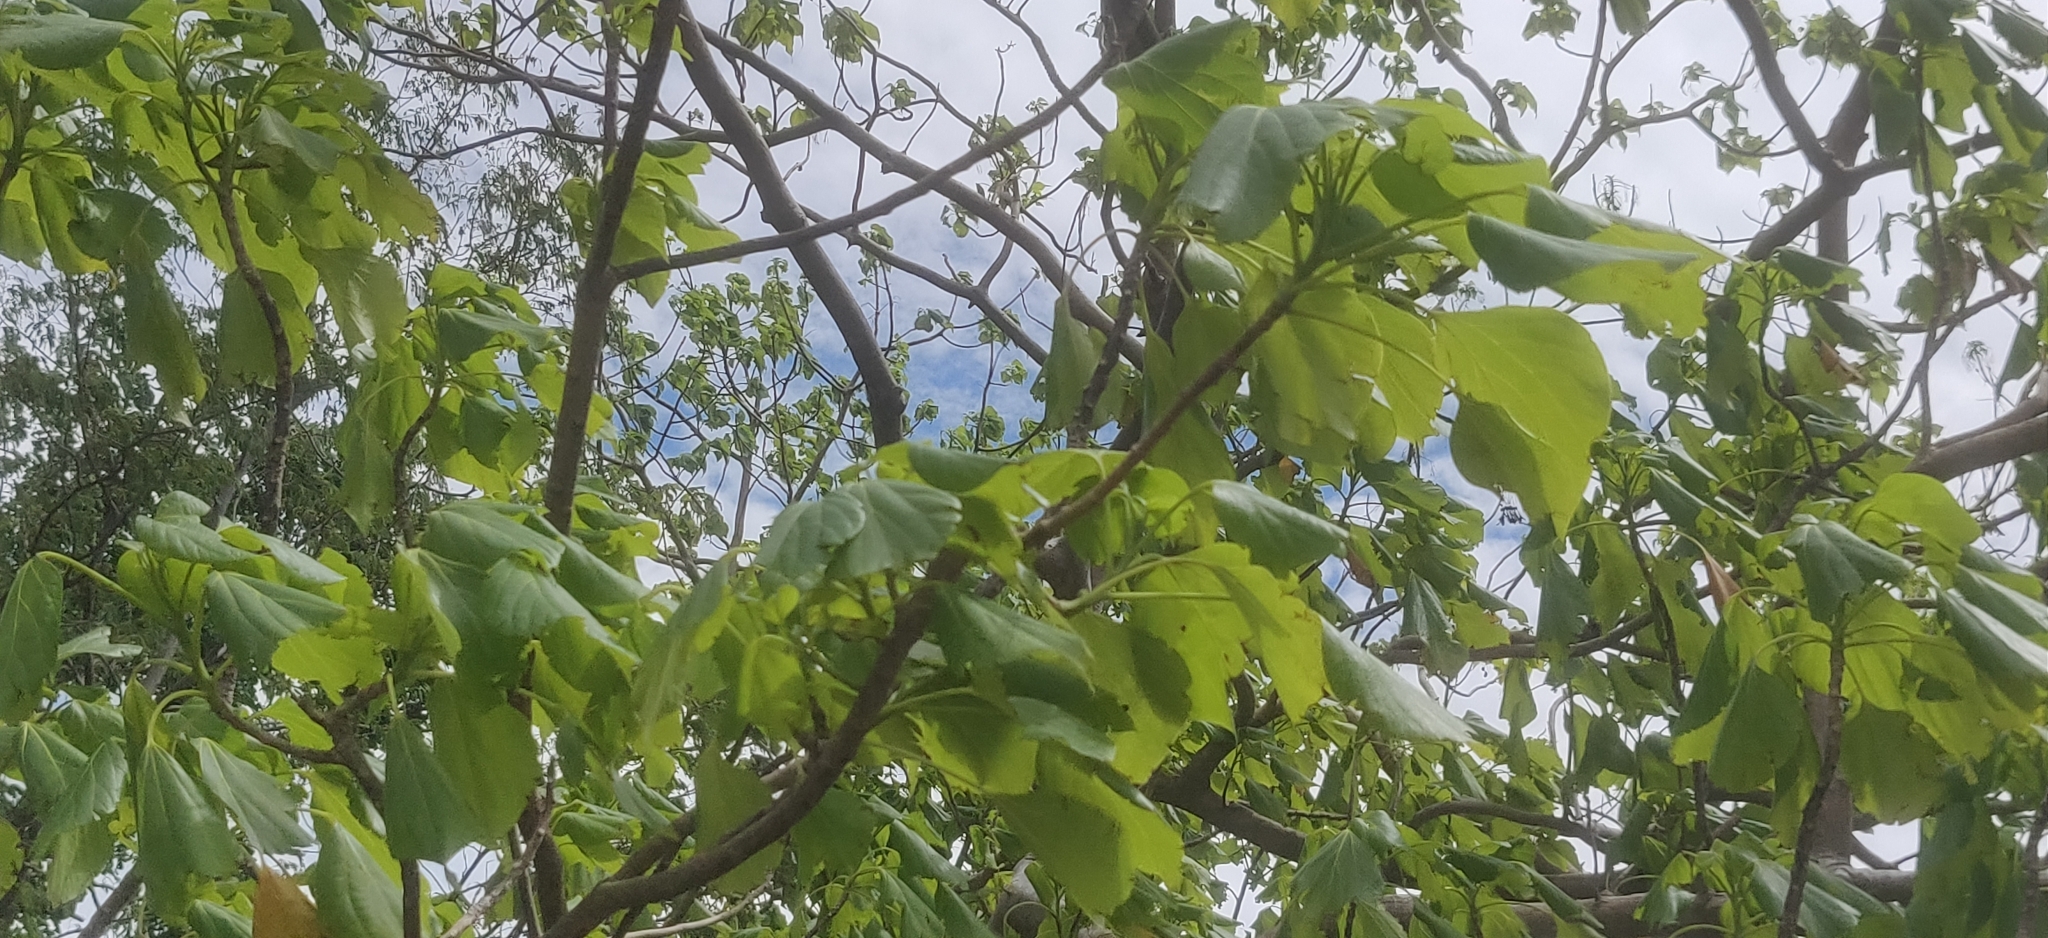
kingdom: Plantae
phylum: Tracheophyta
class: Magnoliopsida
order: Laurales
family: Hernandiaceae
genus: Gyrocarpus
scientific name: Gyrocarpus americanus
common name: Gyro damson
